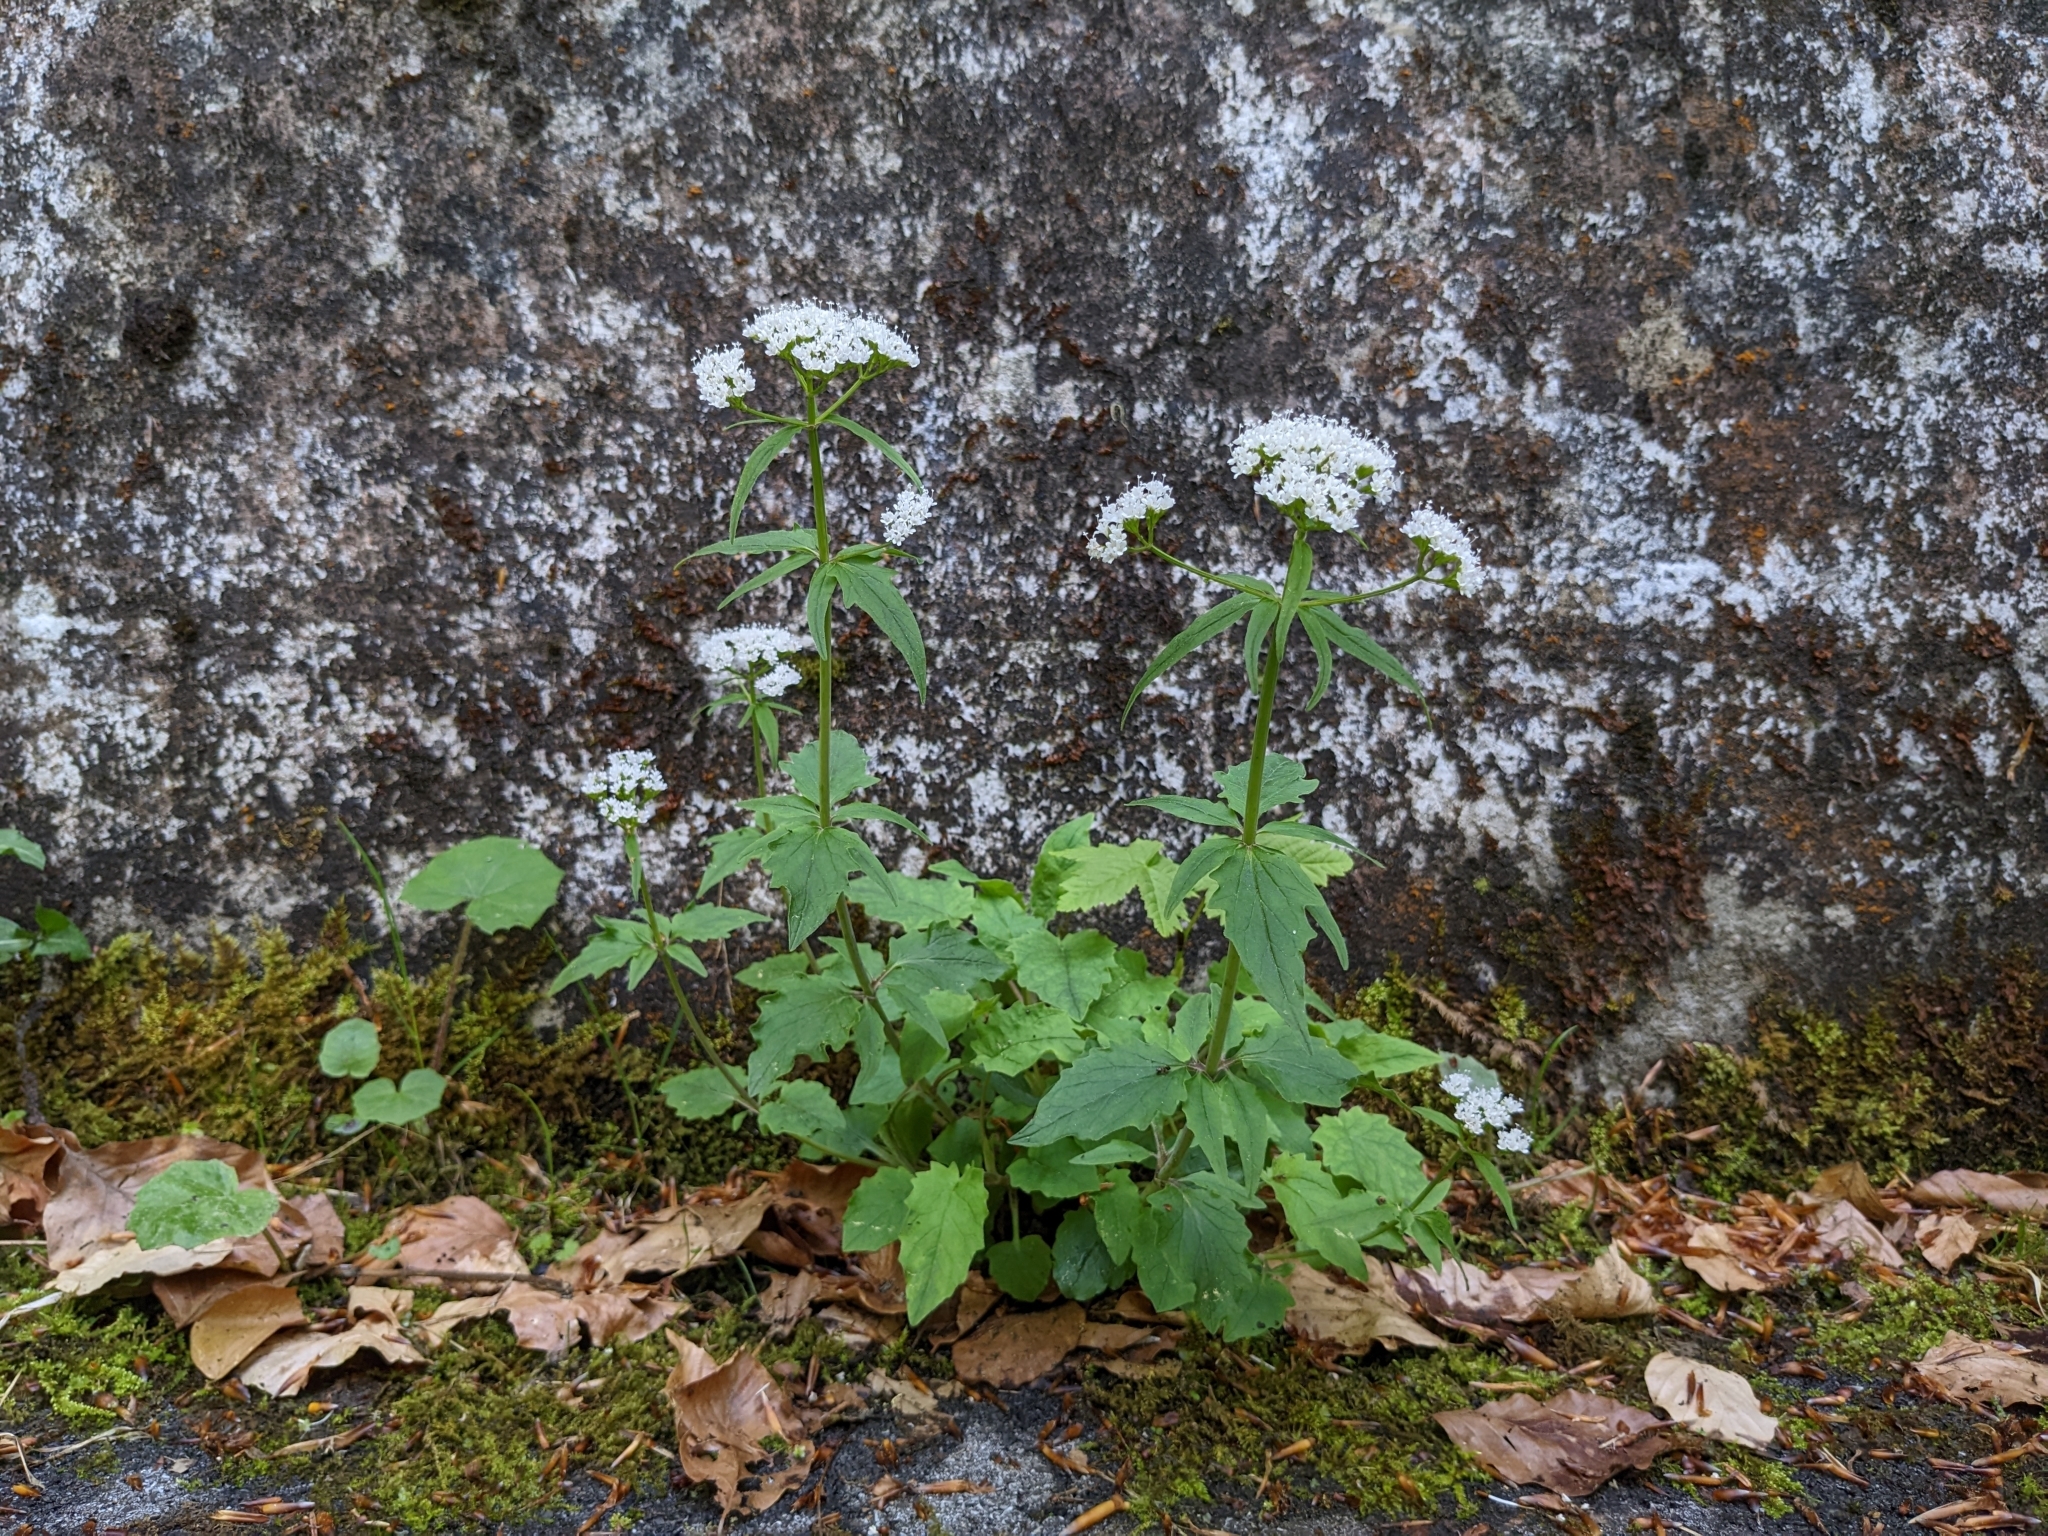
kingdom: Plantae
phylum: Tracheophyta
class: Magnoliopsida
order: Dipsacales
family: Caprifoliaceae
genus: Valeriana
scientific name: Valeriana tripteris
